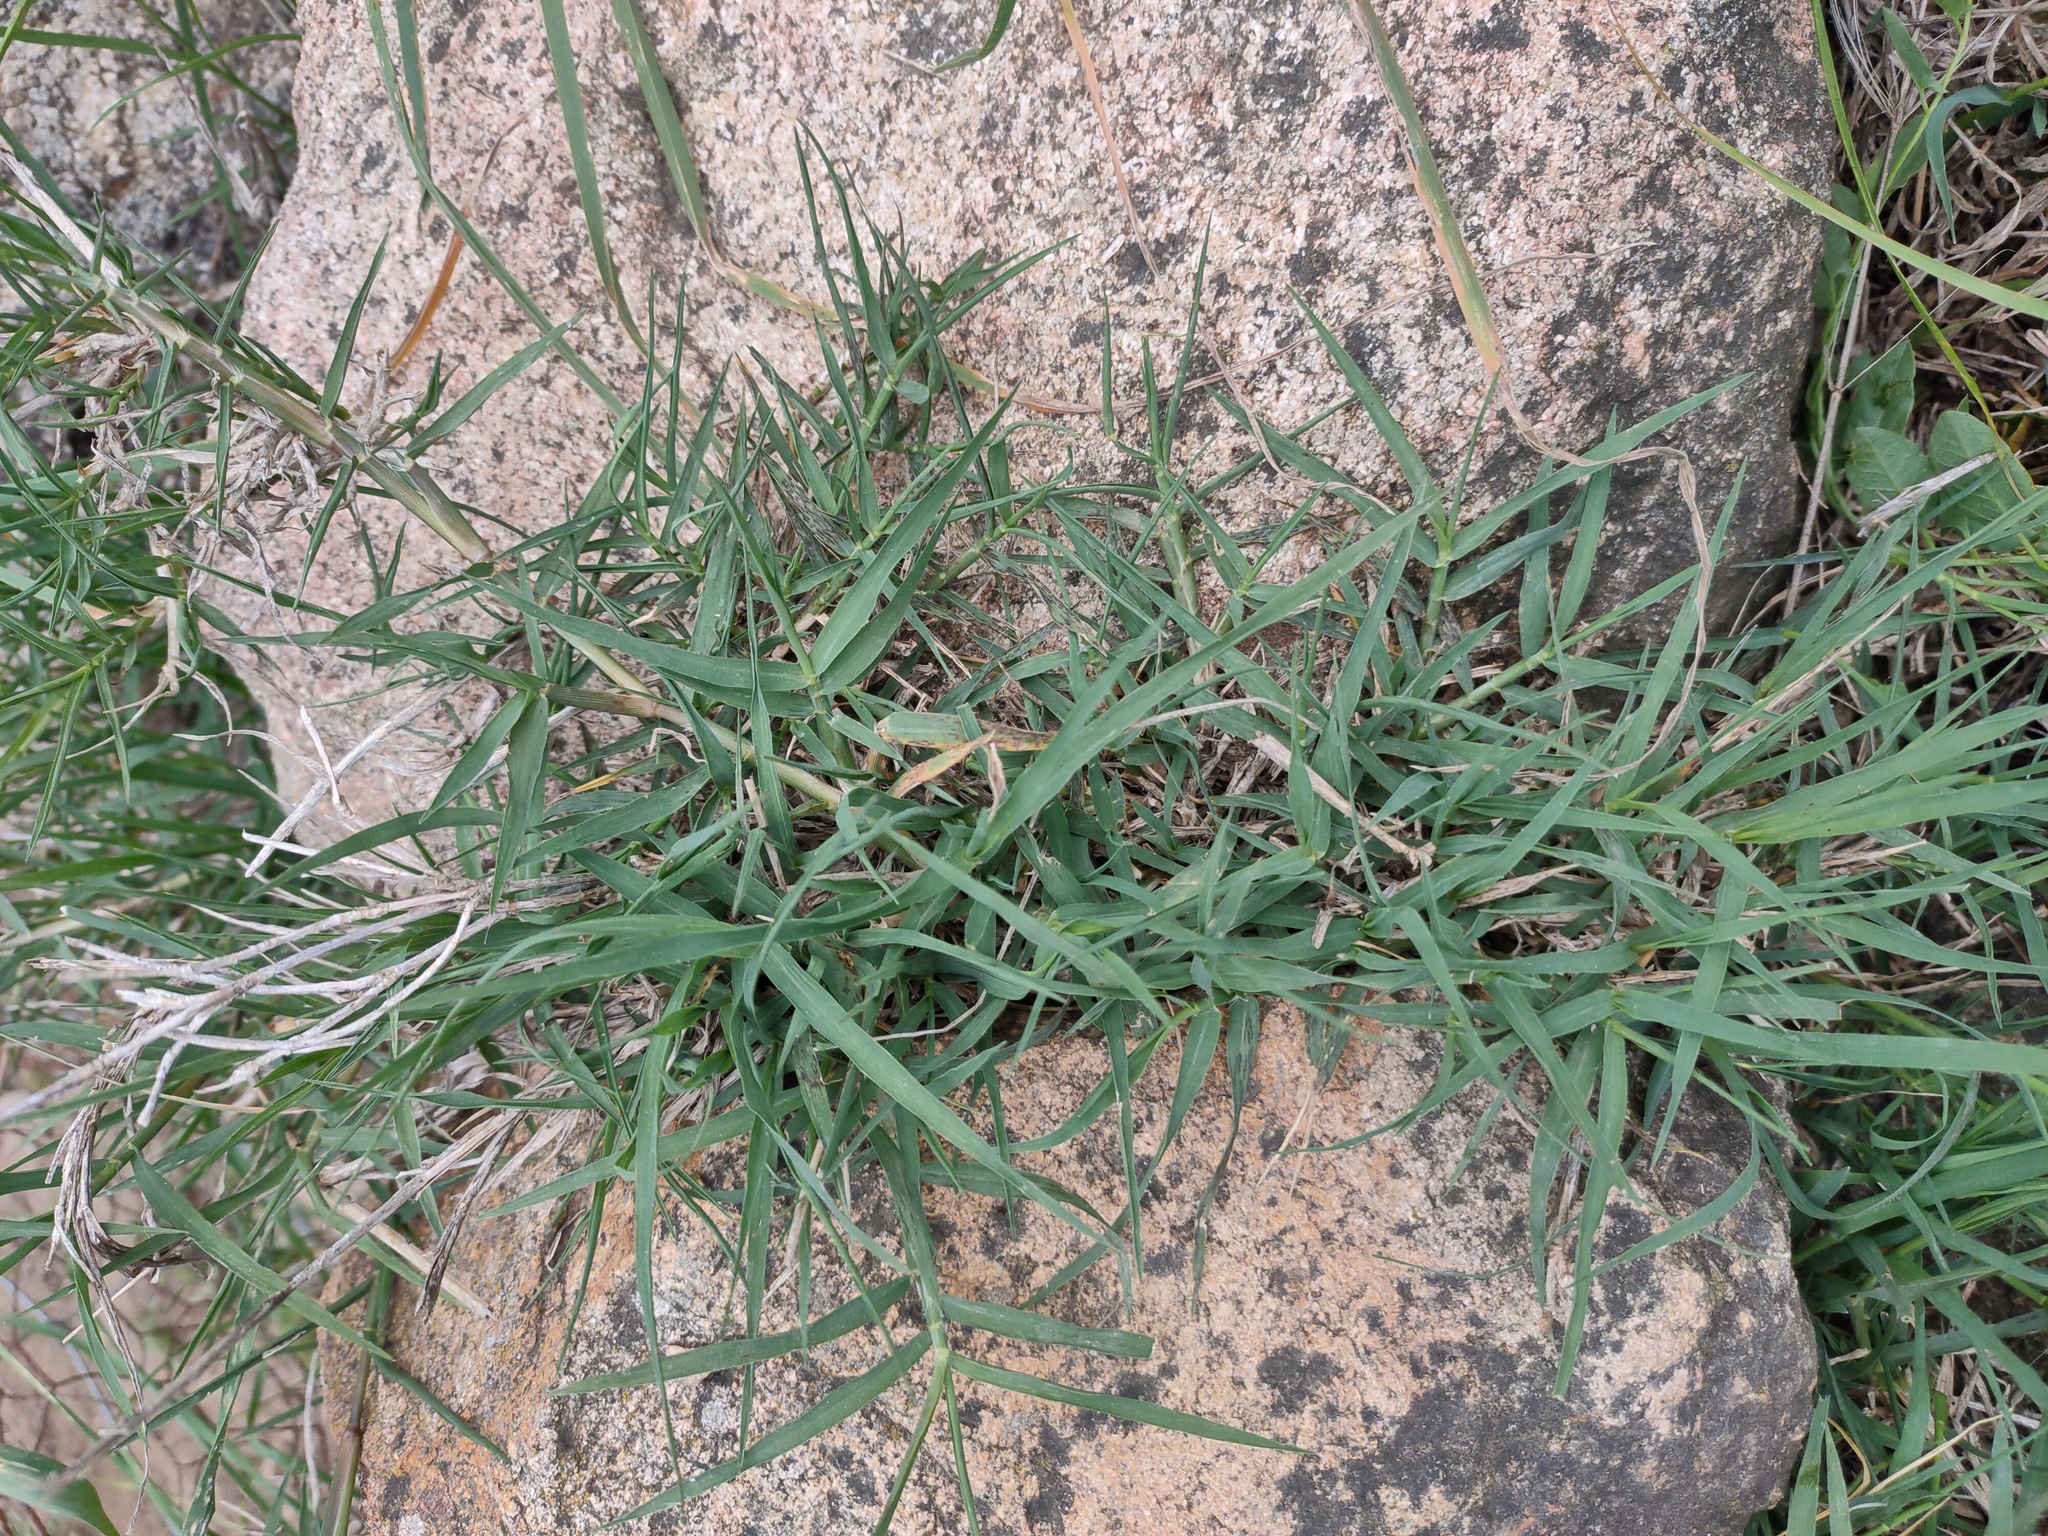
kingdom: Plantae
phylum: Tracheophyta
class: Liliopsida
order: Poales
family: Poaceae
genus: Cynodon
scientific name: Cynodon dactylon
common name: Bermuda grass
